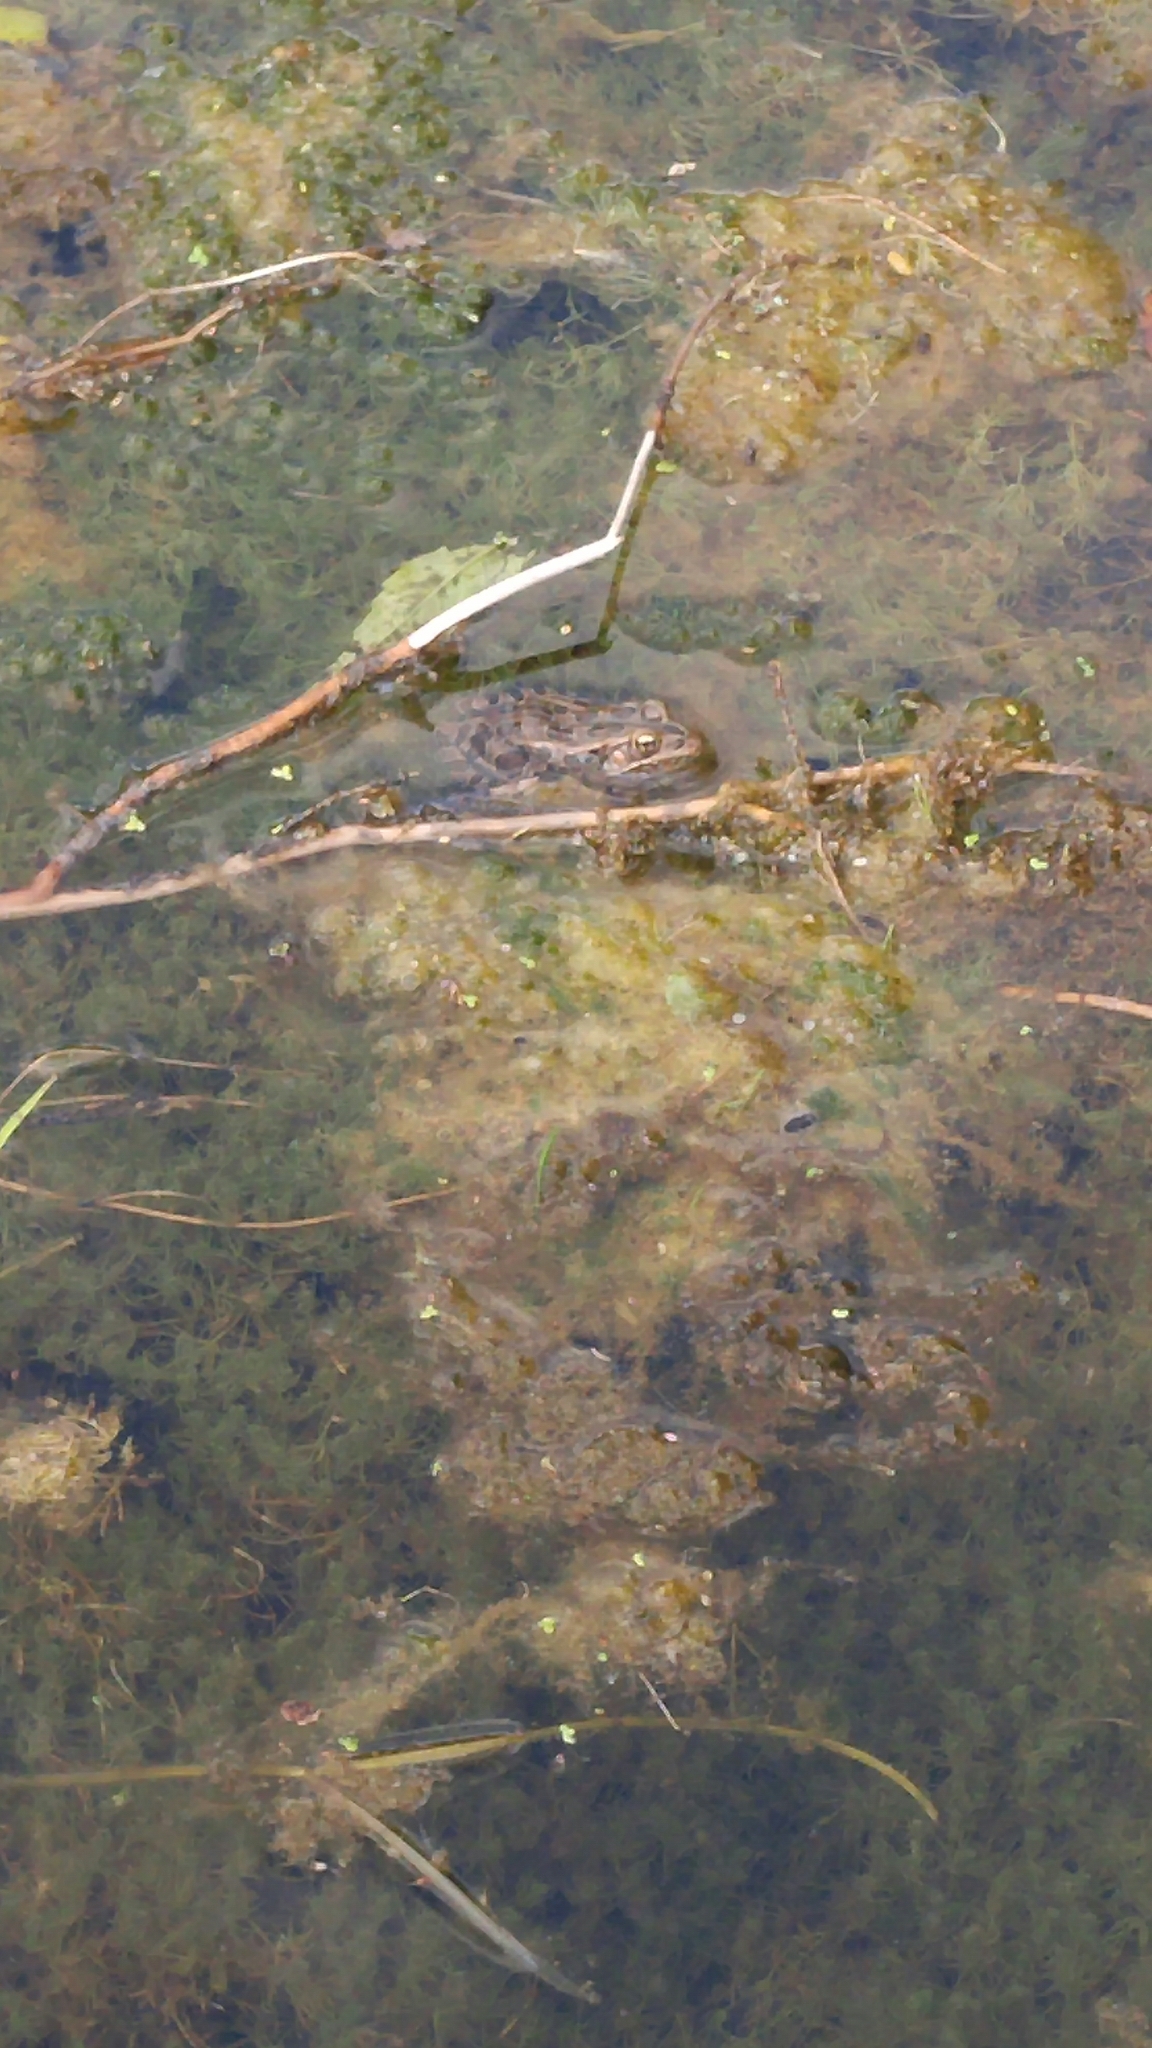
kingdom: Animalia
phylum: Chordata
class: Amphibia
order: Anura
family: Ranidae
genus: Lithobates
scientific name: Lithobates pipiens
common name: Northern leopard frog
